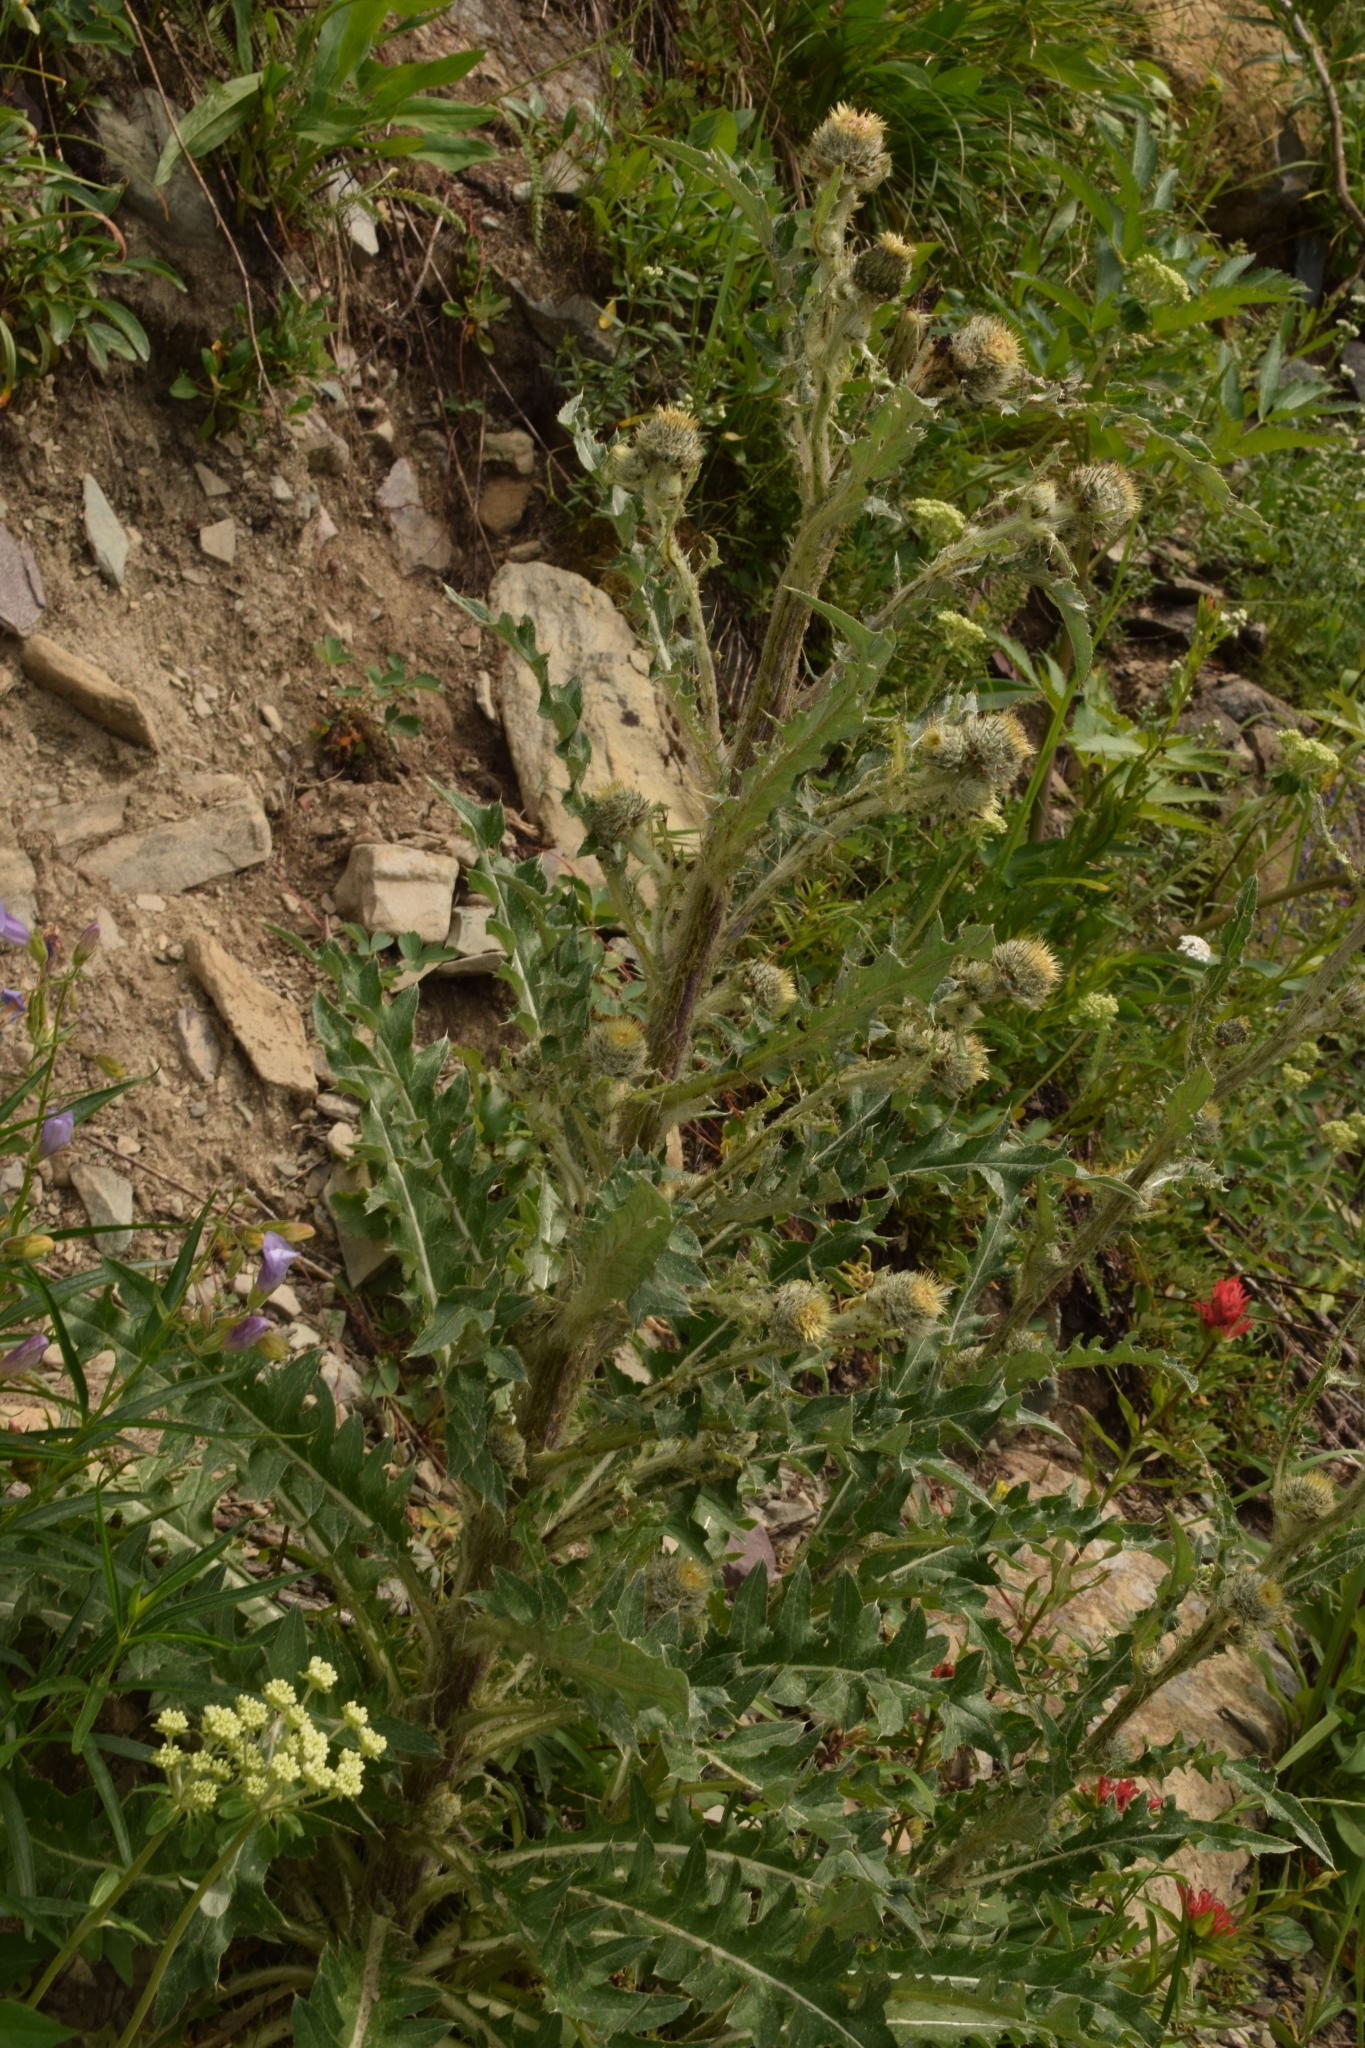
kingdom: Plantae
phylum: Tracheophyta
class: Magnoliopsida
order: Asterales
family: Asteraceae
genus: Cirsium
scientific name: Cirsium hookerianum
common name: Hooker's thistle
